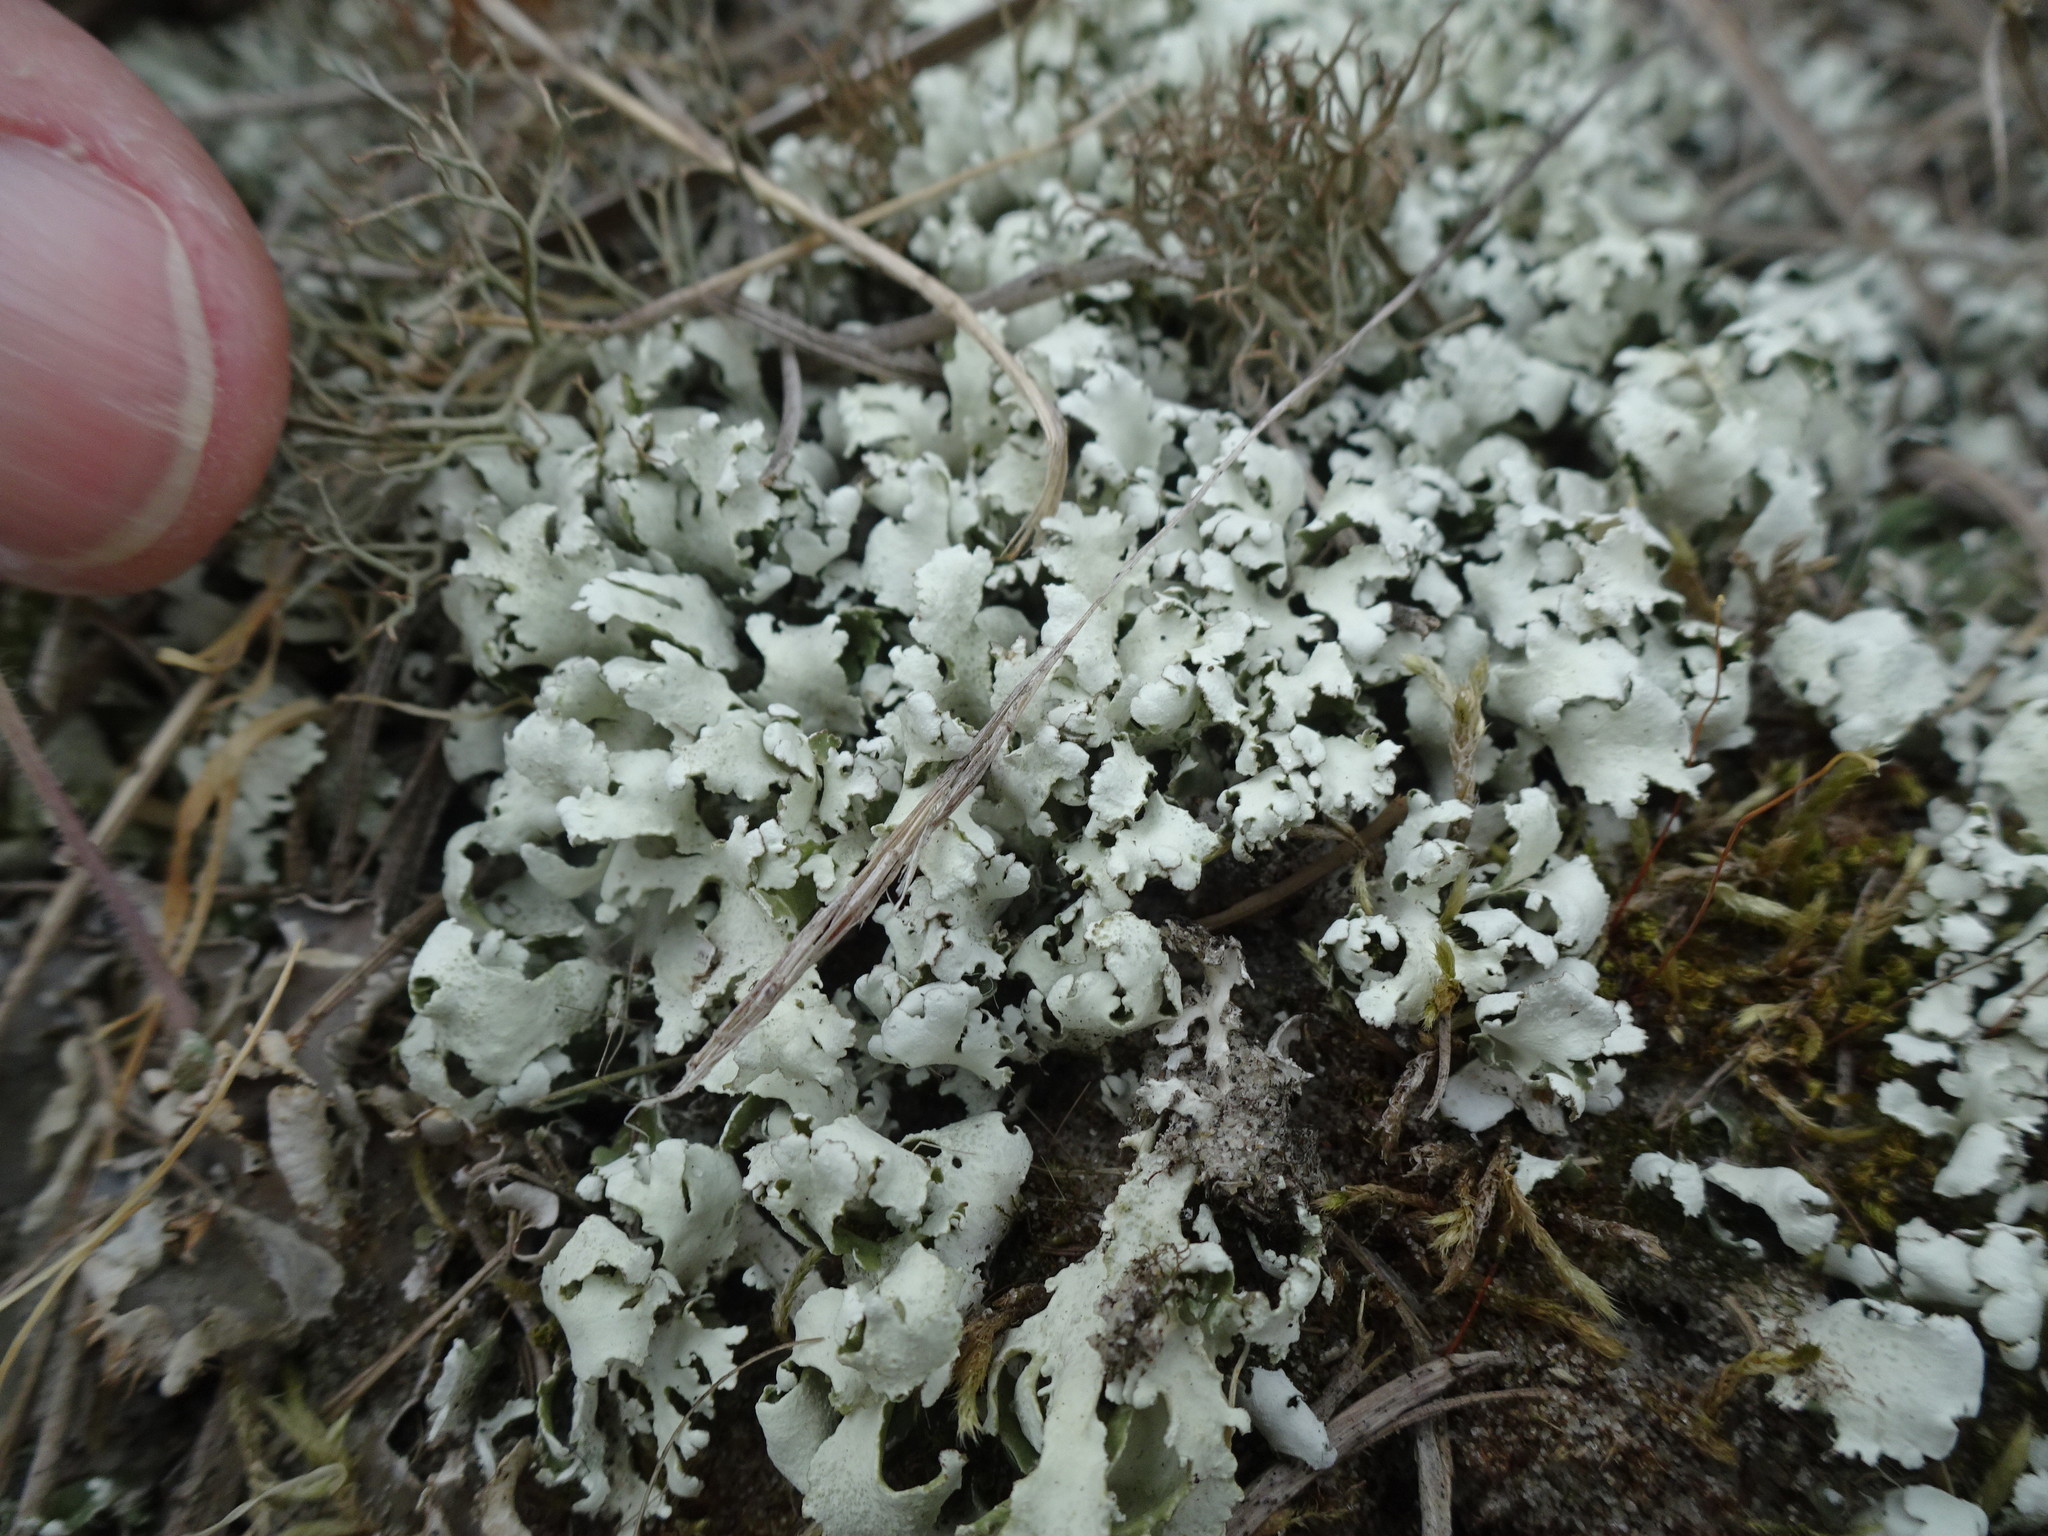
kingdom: Fungi
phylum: Ascomycota
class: Lecanoromycetes
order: Lecanorales
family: Cladoniaceae
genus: Cladonia
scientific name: Cladonia foliacea
